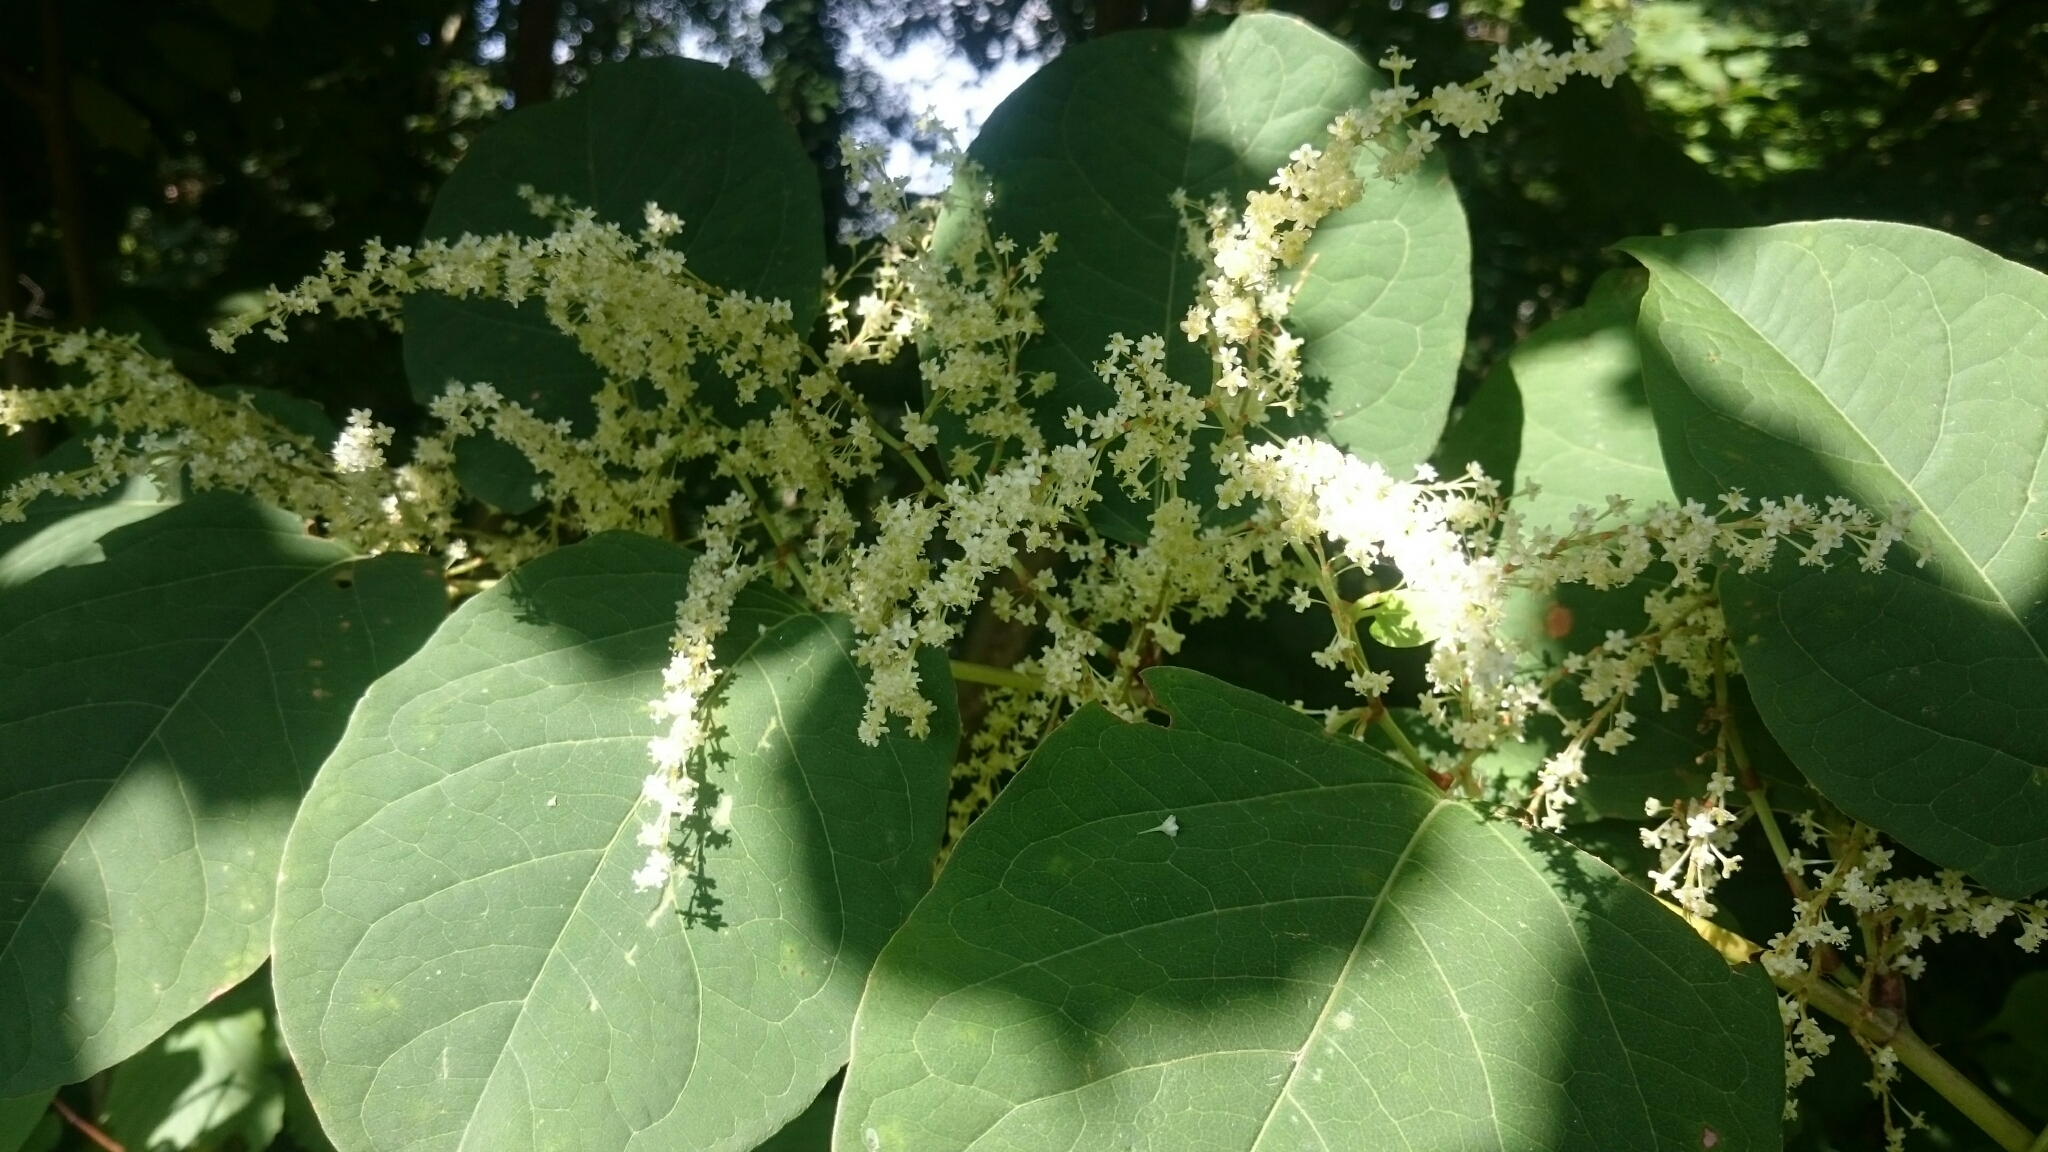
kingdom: Plantae
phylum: Tracheophyta
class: Magnoliopsida
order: Caryophyllales
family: Polygonaceae
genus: Reynoutria
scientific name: Reynoutria japonica
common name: Japanese knotweed
